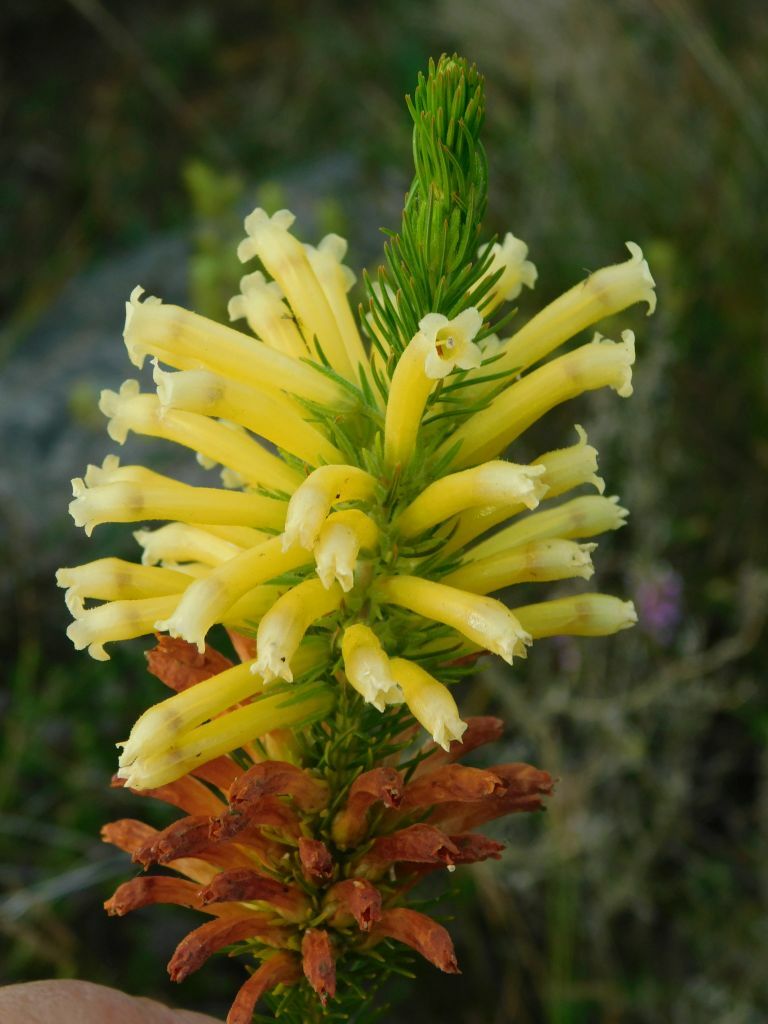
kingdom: Plantae
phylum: Tracheophyta
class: Magnoliopsida
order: Ericales
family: Ericaceae
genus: Erica
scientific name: Erica viscaria
